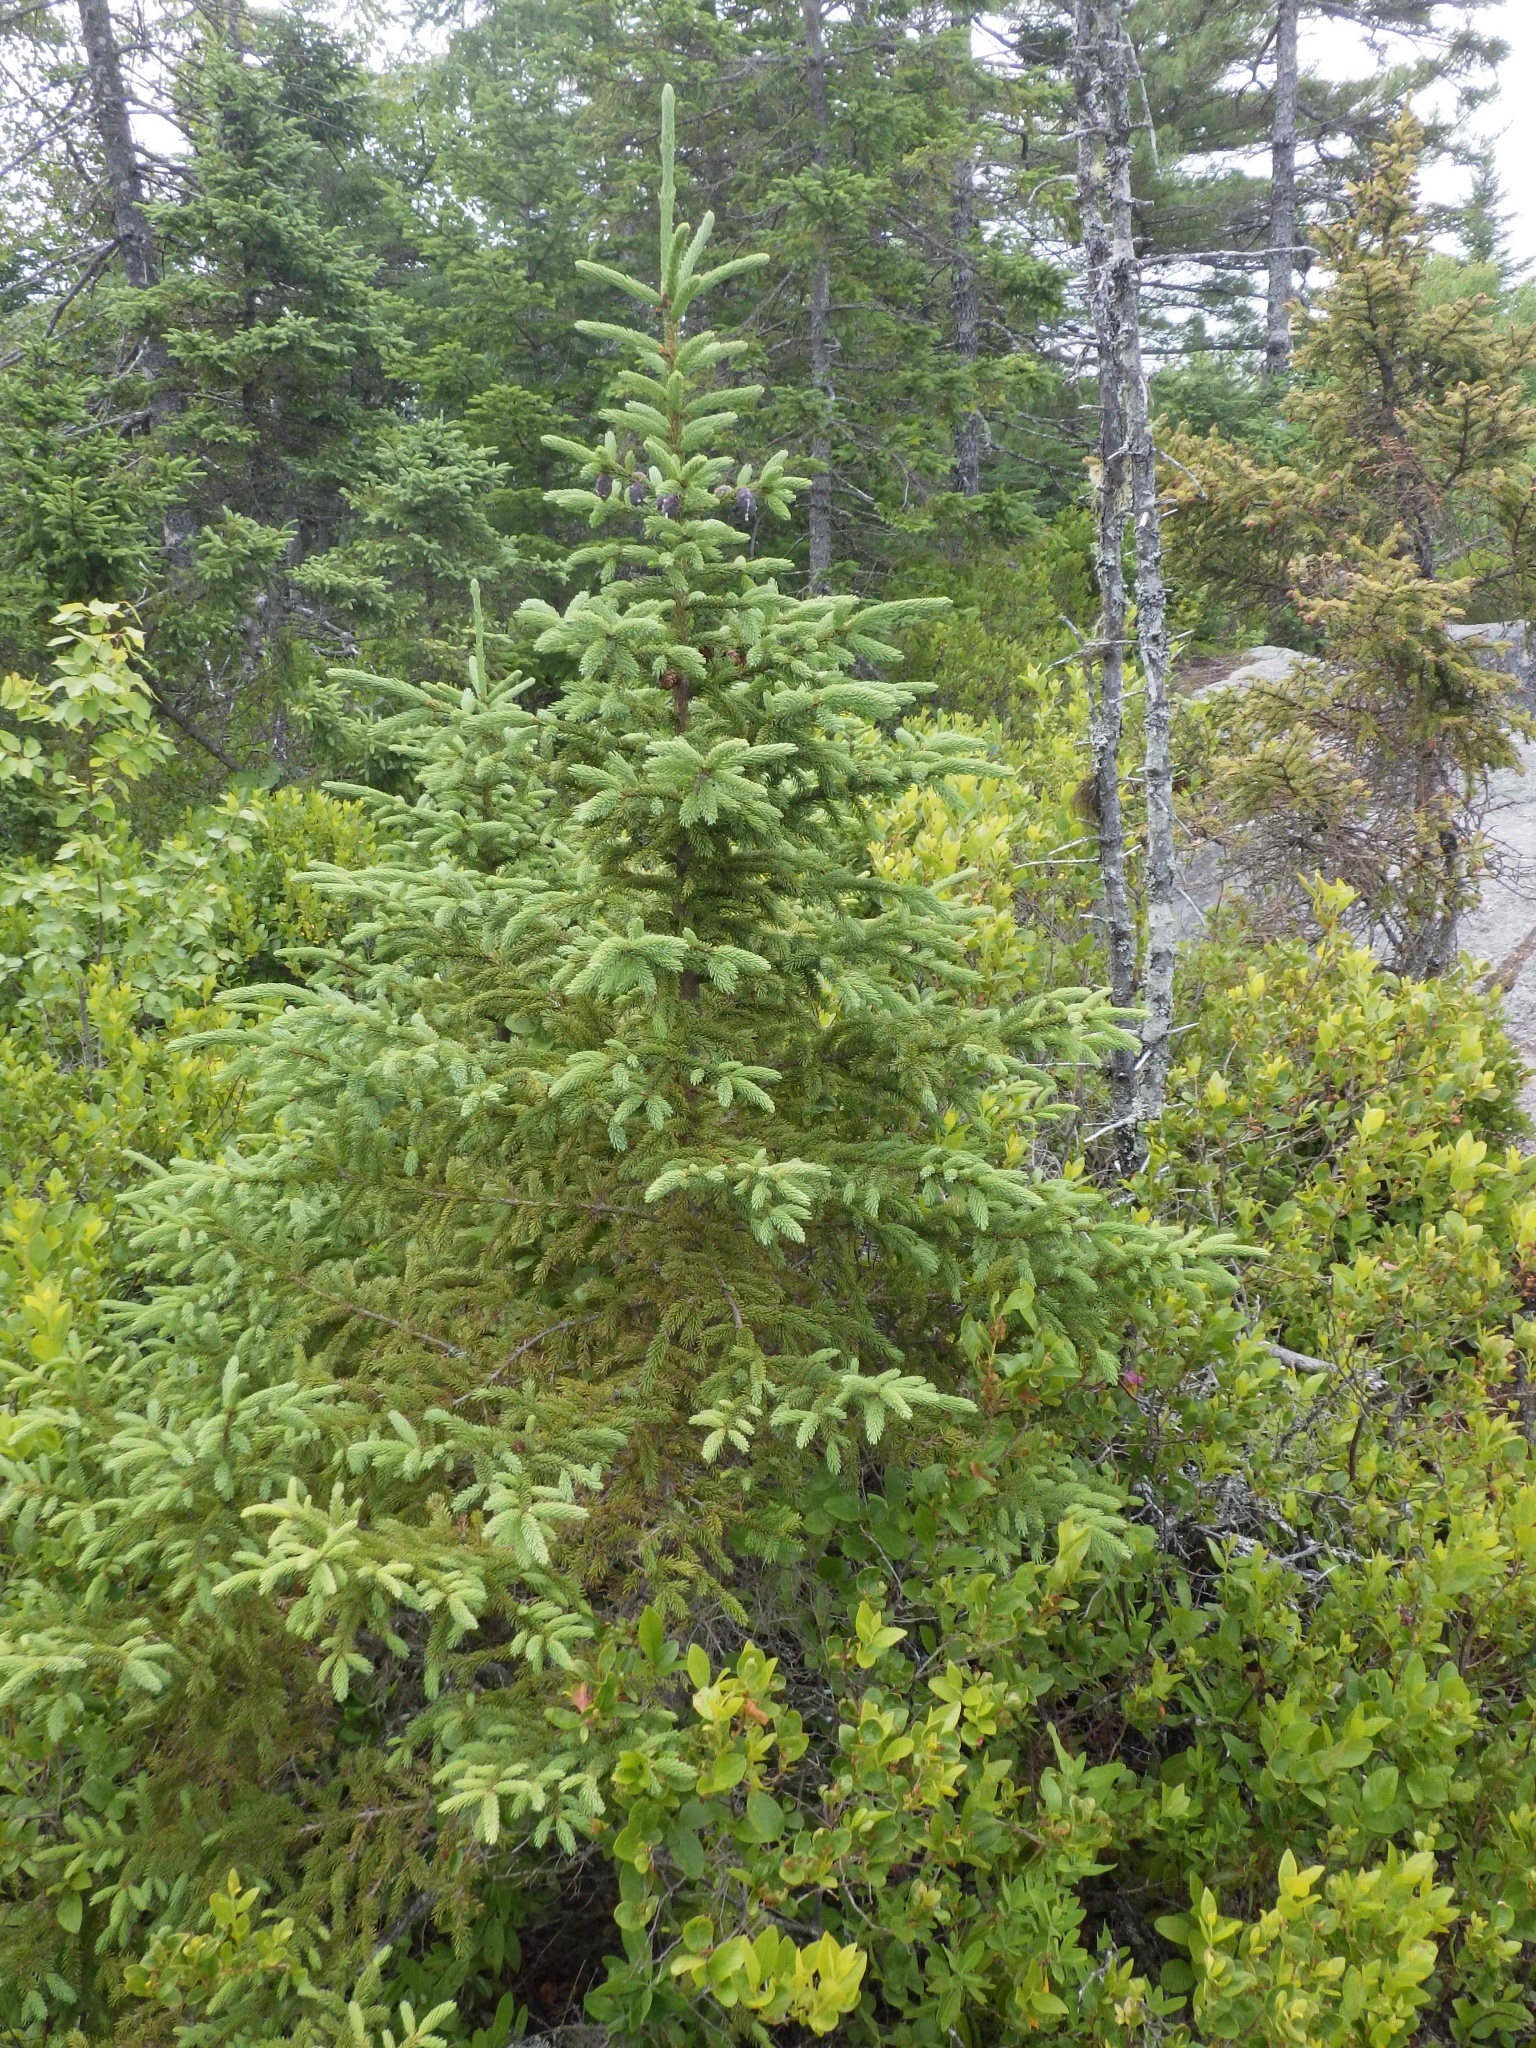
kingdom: Plantae
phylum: Tracheophyta
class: Pinopsida
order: Pinales
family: Pinaceae
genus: Picea
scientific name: Picea mariana
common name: Black spruce
